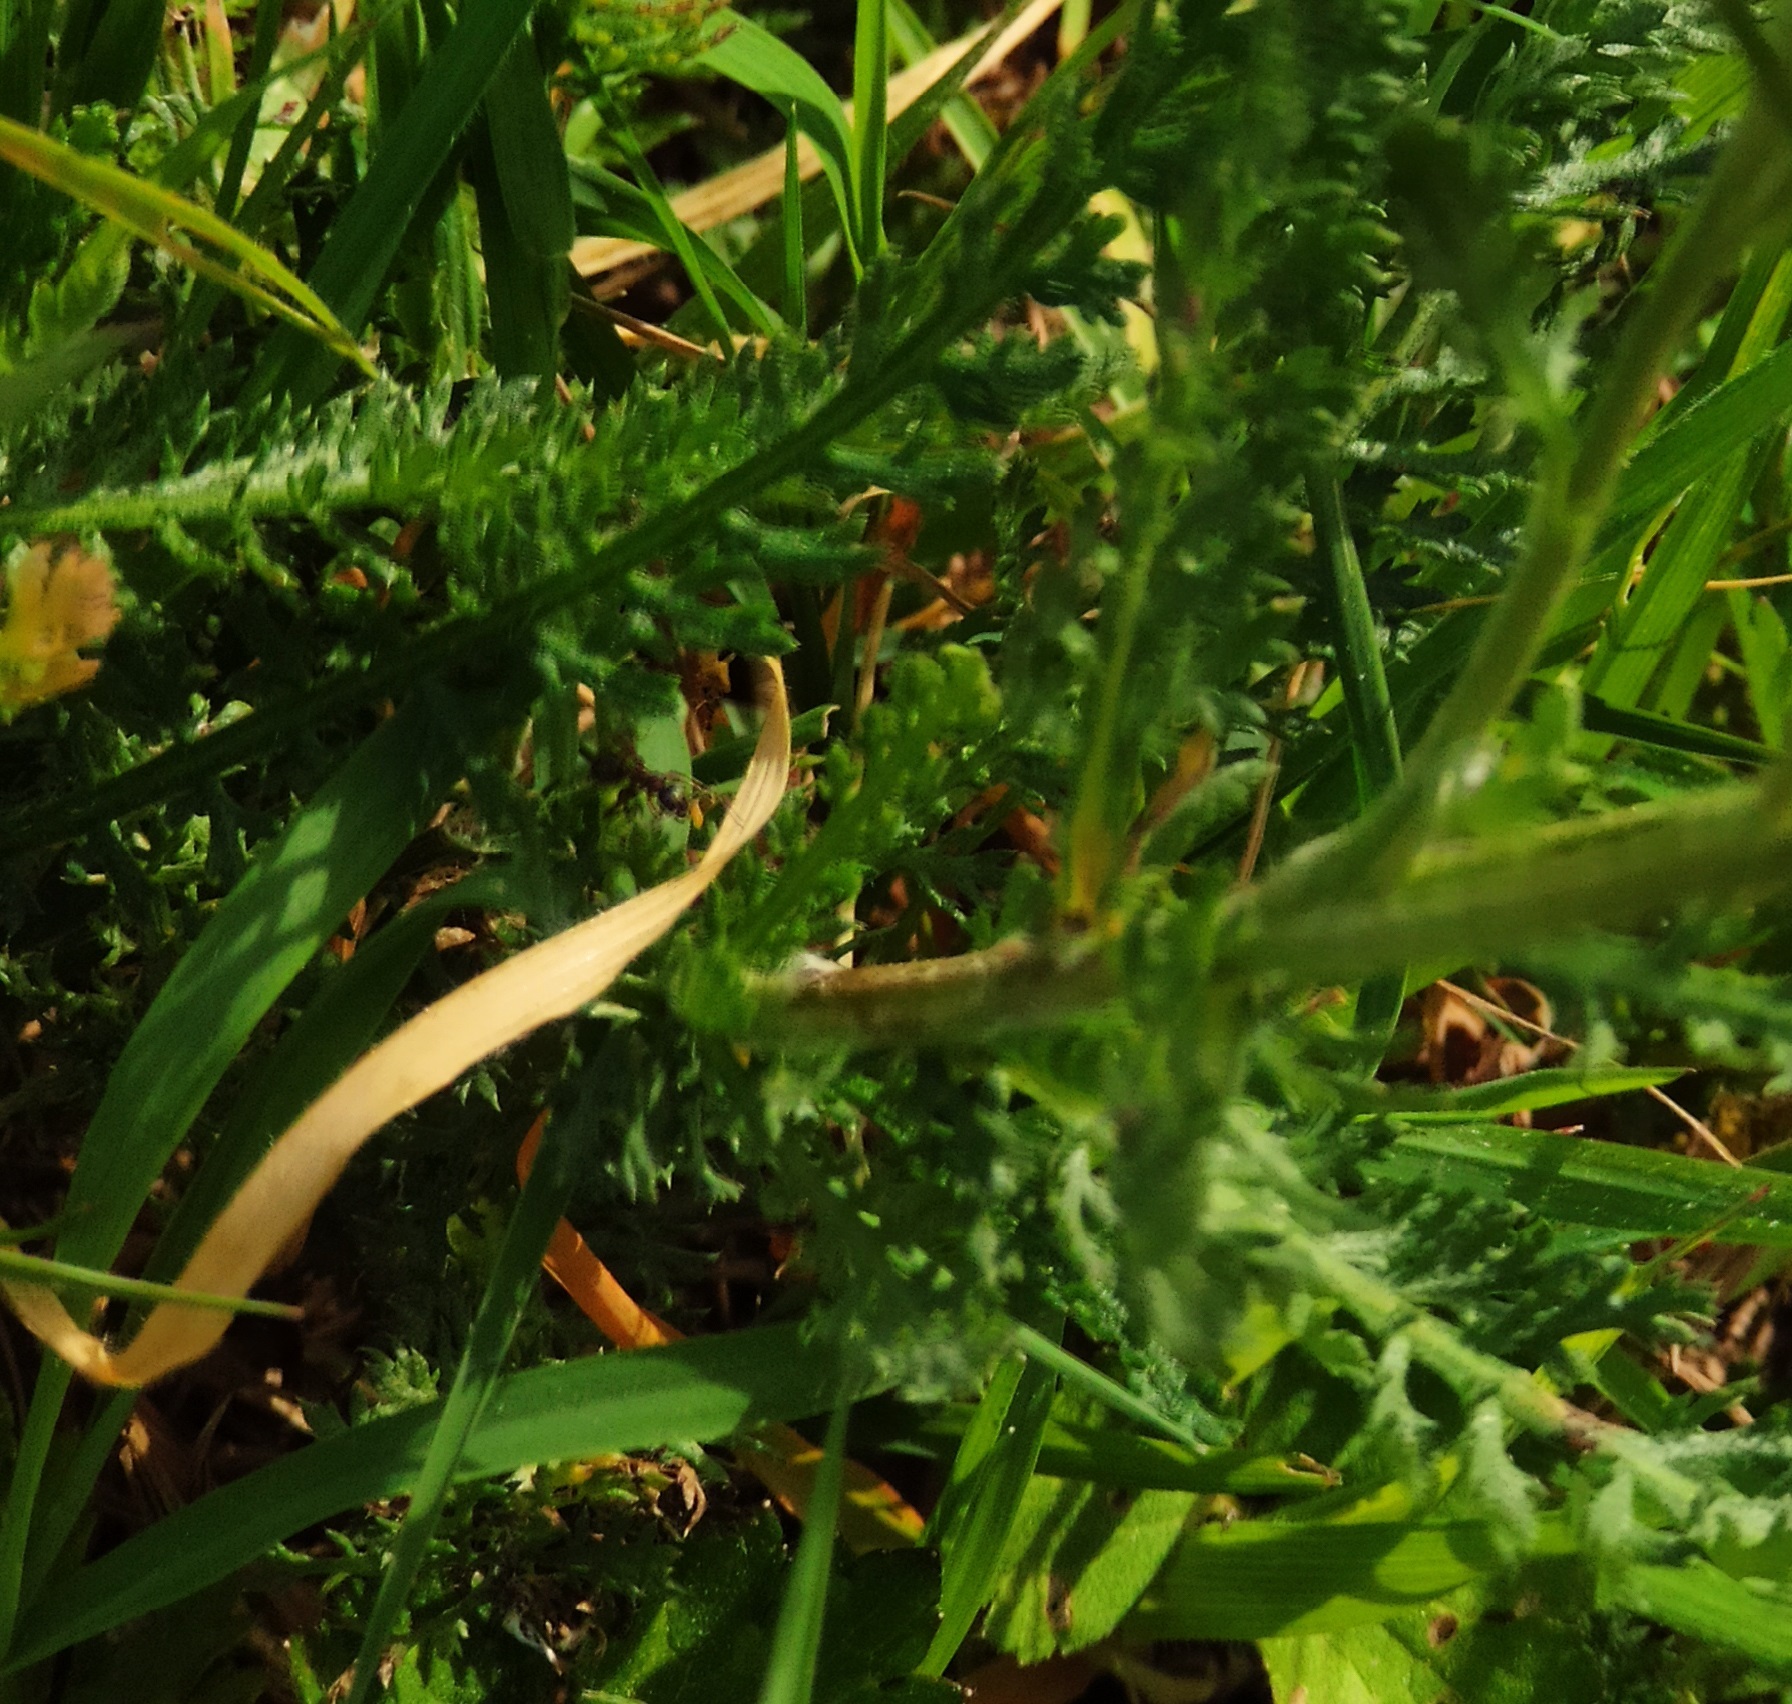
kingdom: Plantae
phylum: Tracheophyta
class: Magnoliopsida
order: Asterales
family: Asteraceae
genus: Achillea
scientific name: Achillea millefolium
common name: Yarrow
